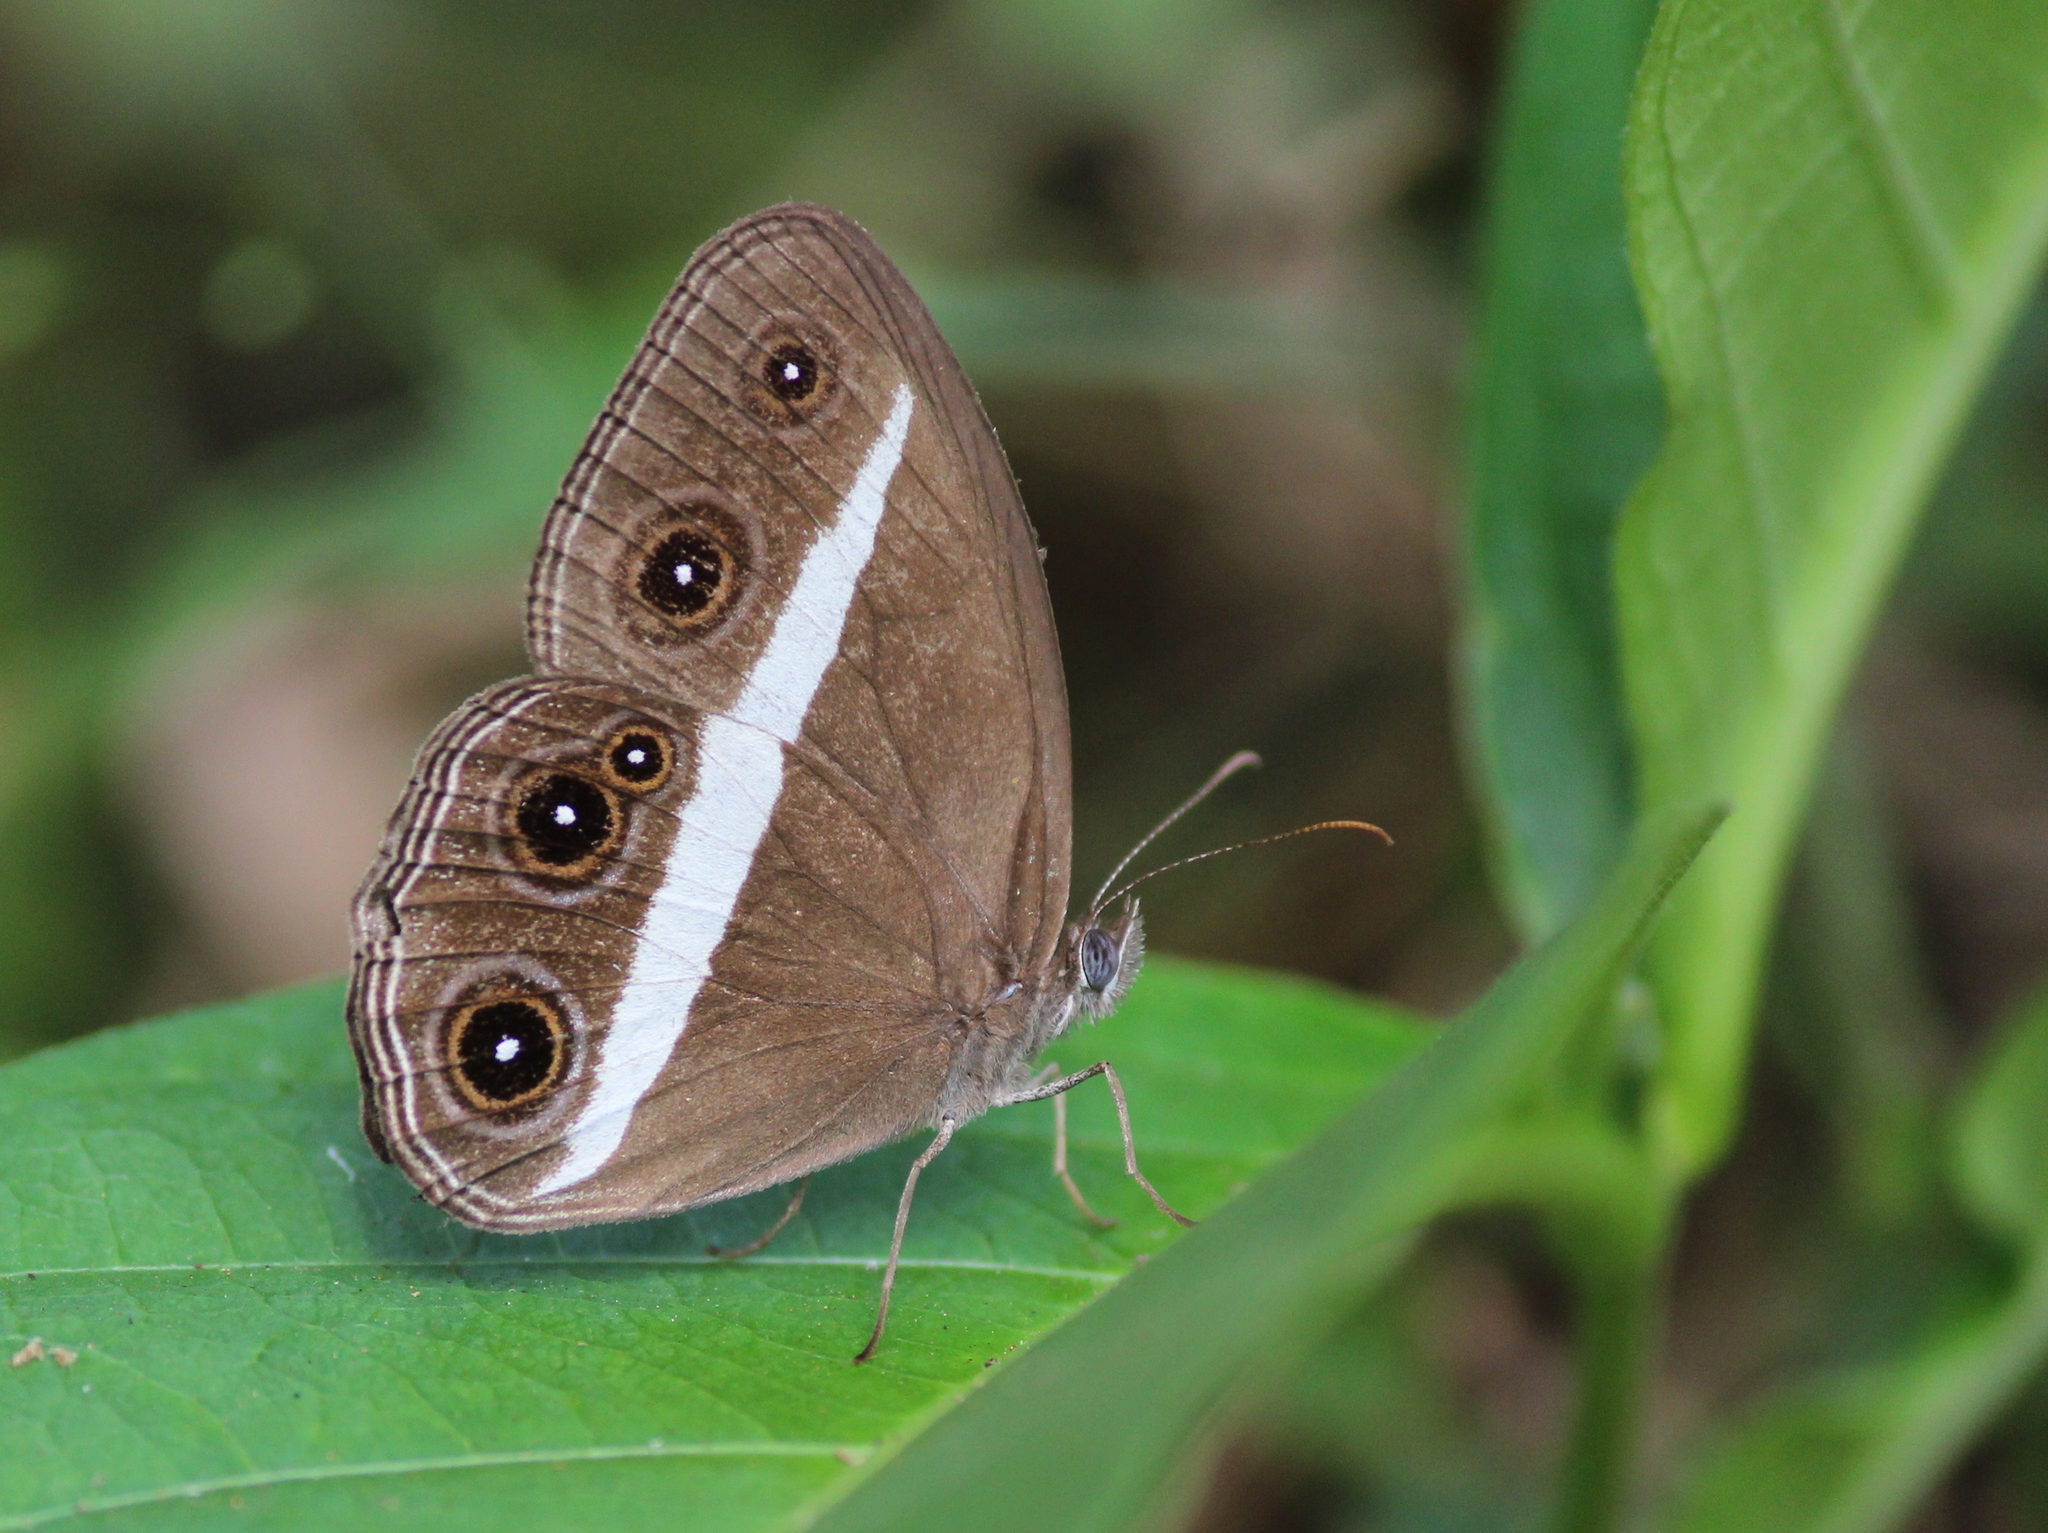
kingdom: Animalia
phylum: Arthropoda
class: Insecta
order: Lepidoptera
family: Nymphalidae
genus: Orsotriaena
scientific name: Orsotriaena medus
